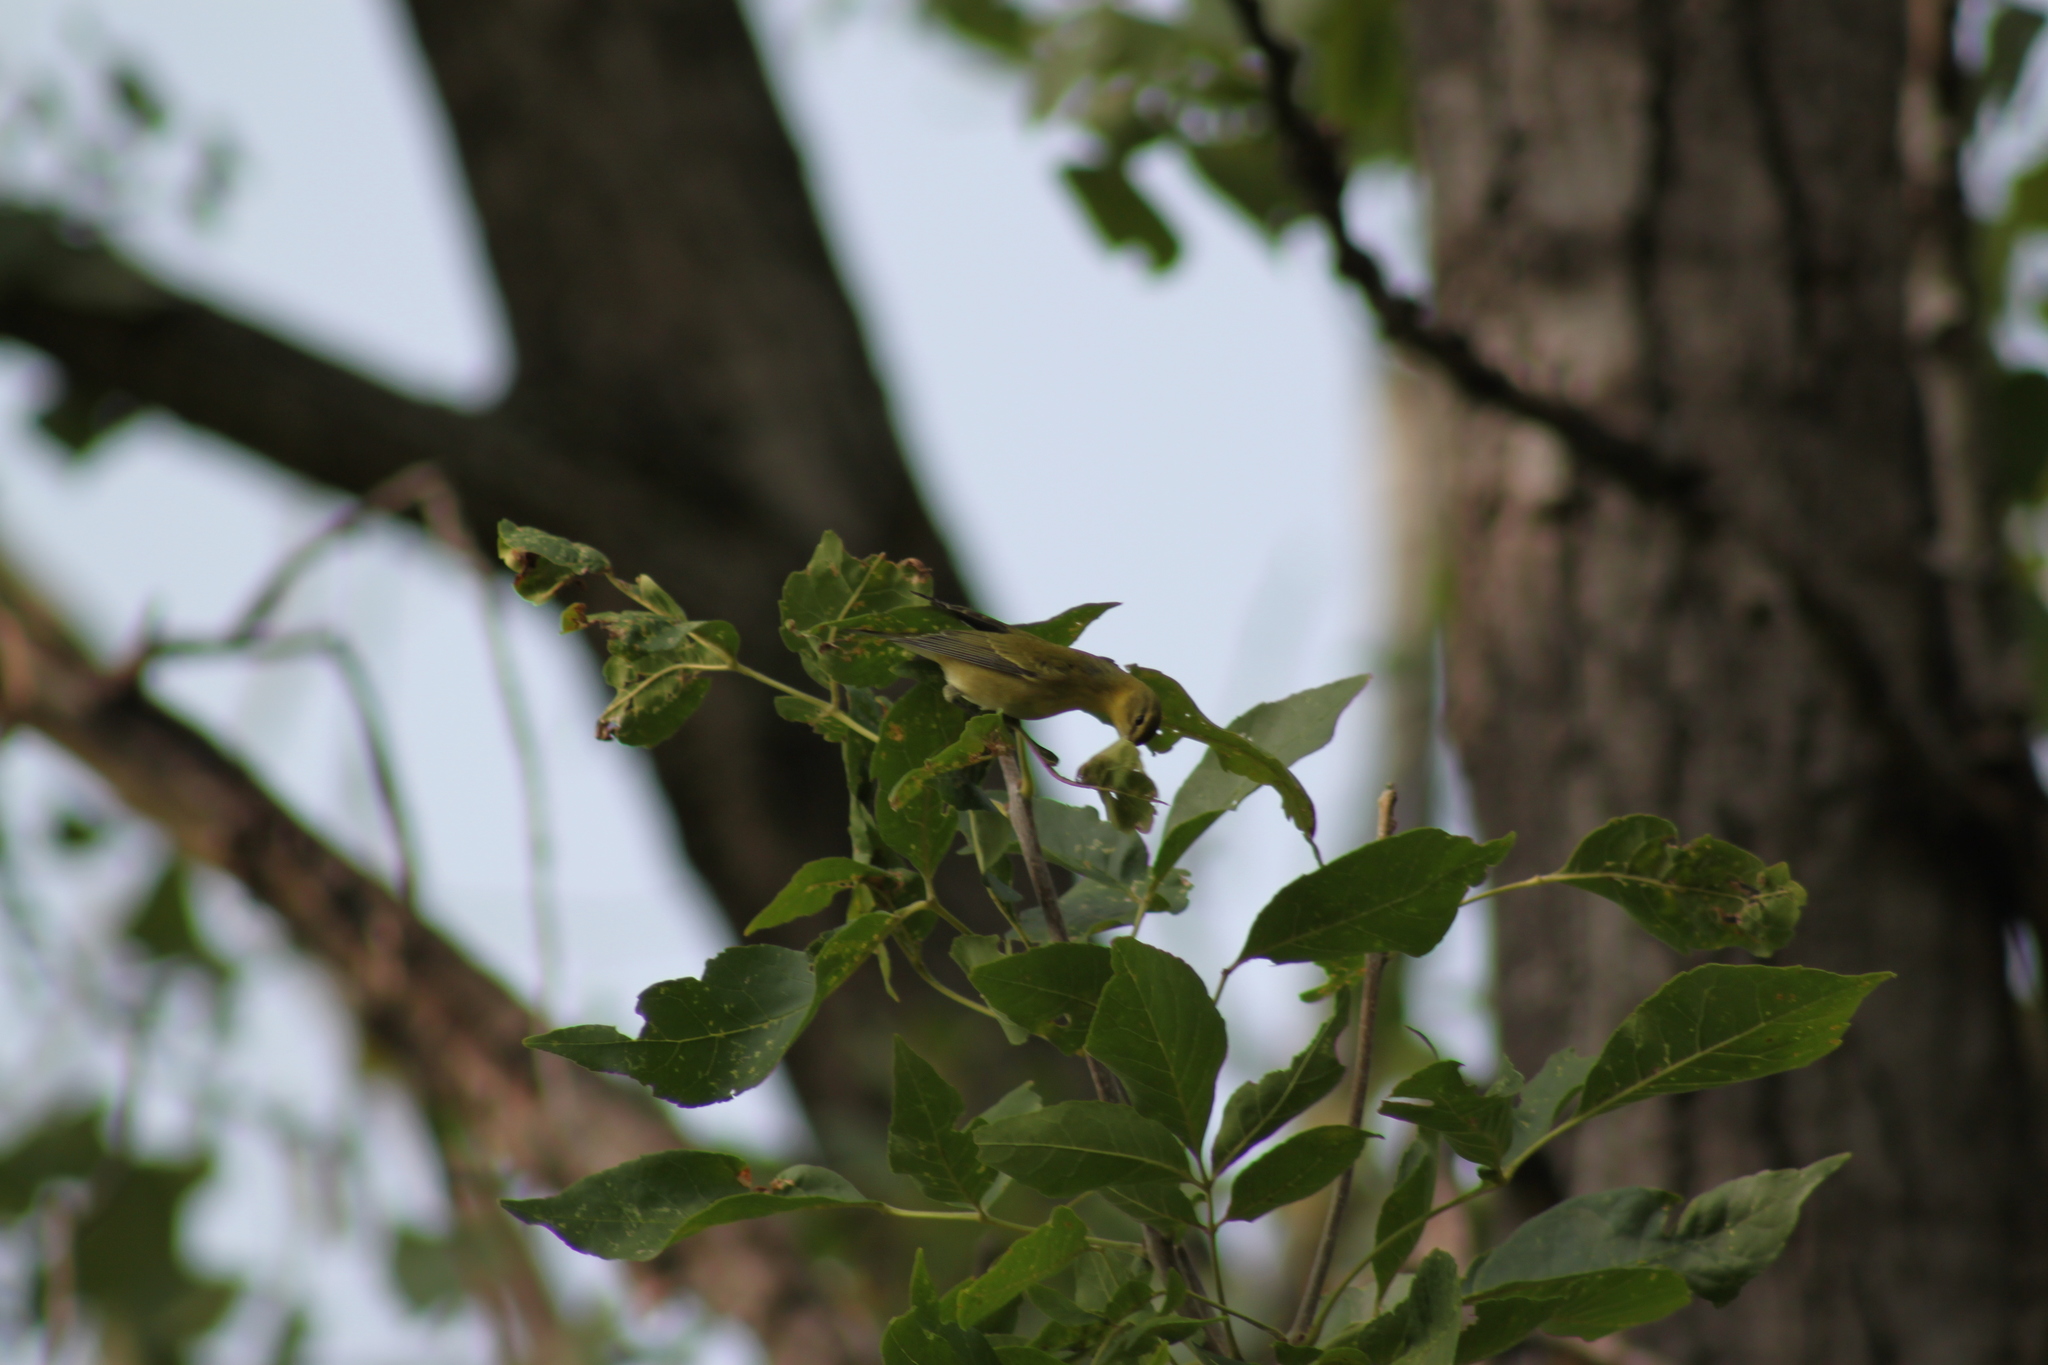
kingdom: Animalia
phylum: Chordata
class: Aves
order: Passeriformes
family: Parulidae
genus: Leiothlypis
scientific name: Leiothlypis peregrina
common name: Tennessee warbler
